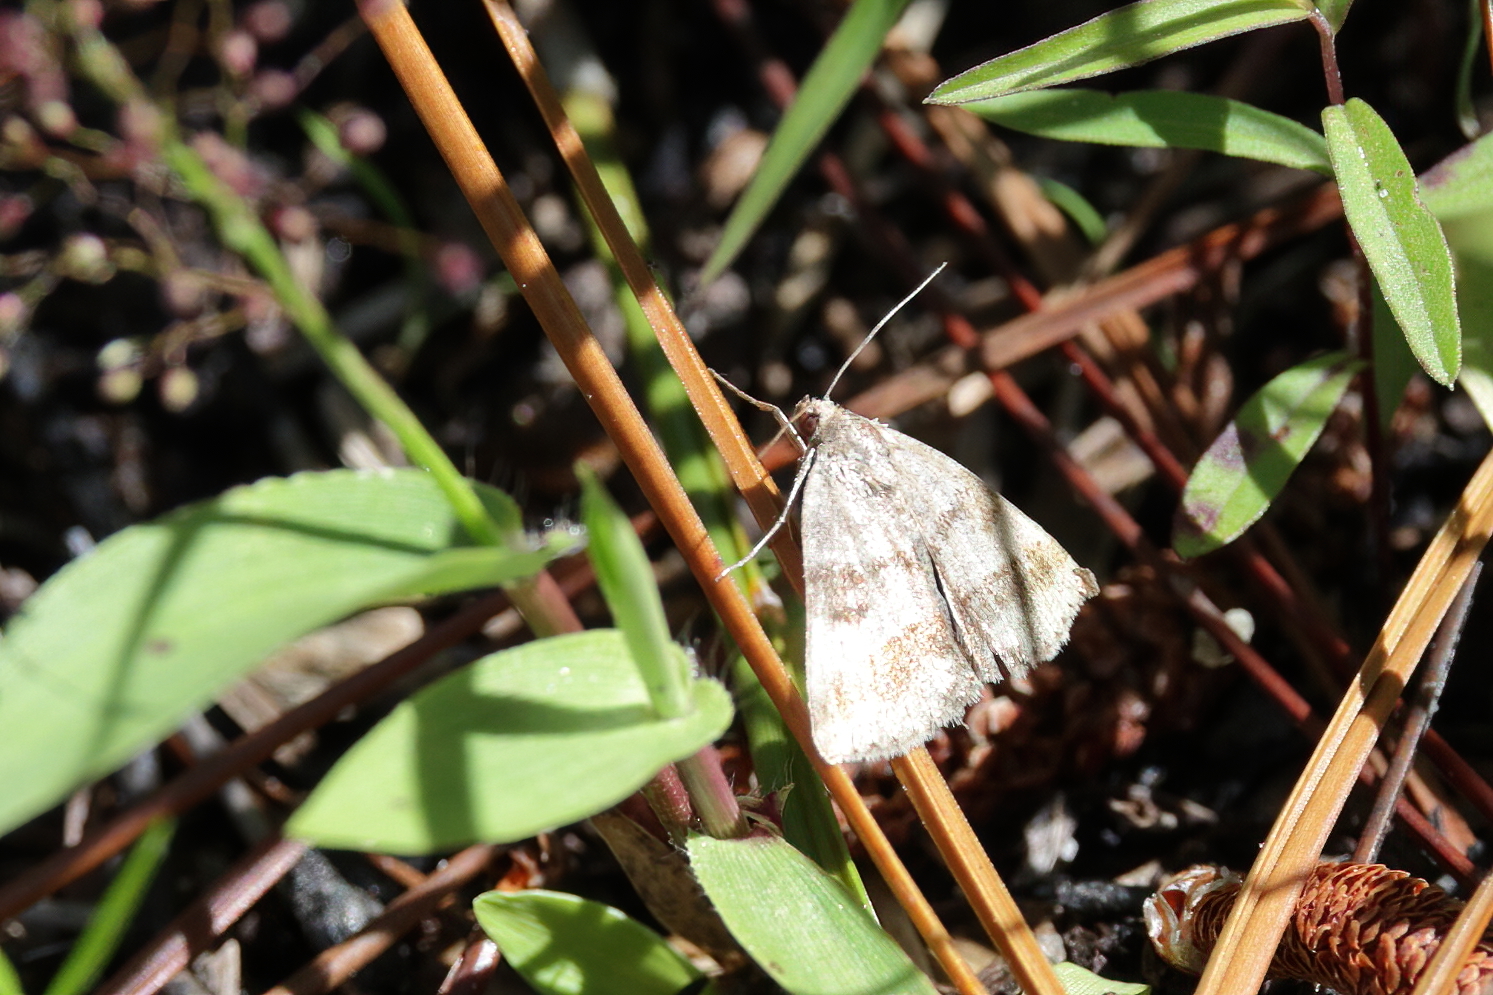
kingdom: Animalia
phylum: Arthropoda
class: Insecta
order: Lepidoptera
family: Erebidae
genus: Argyrostrotis
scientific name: Argyrostrotis sylvarum
